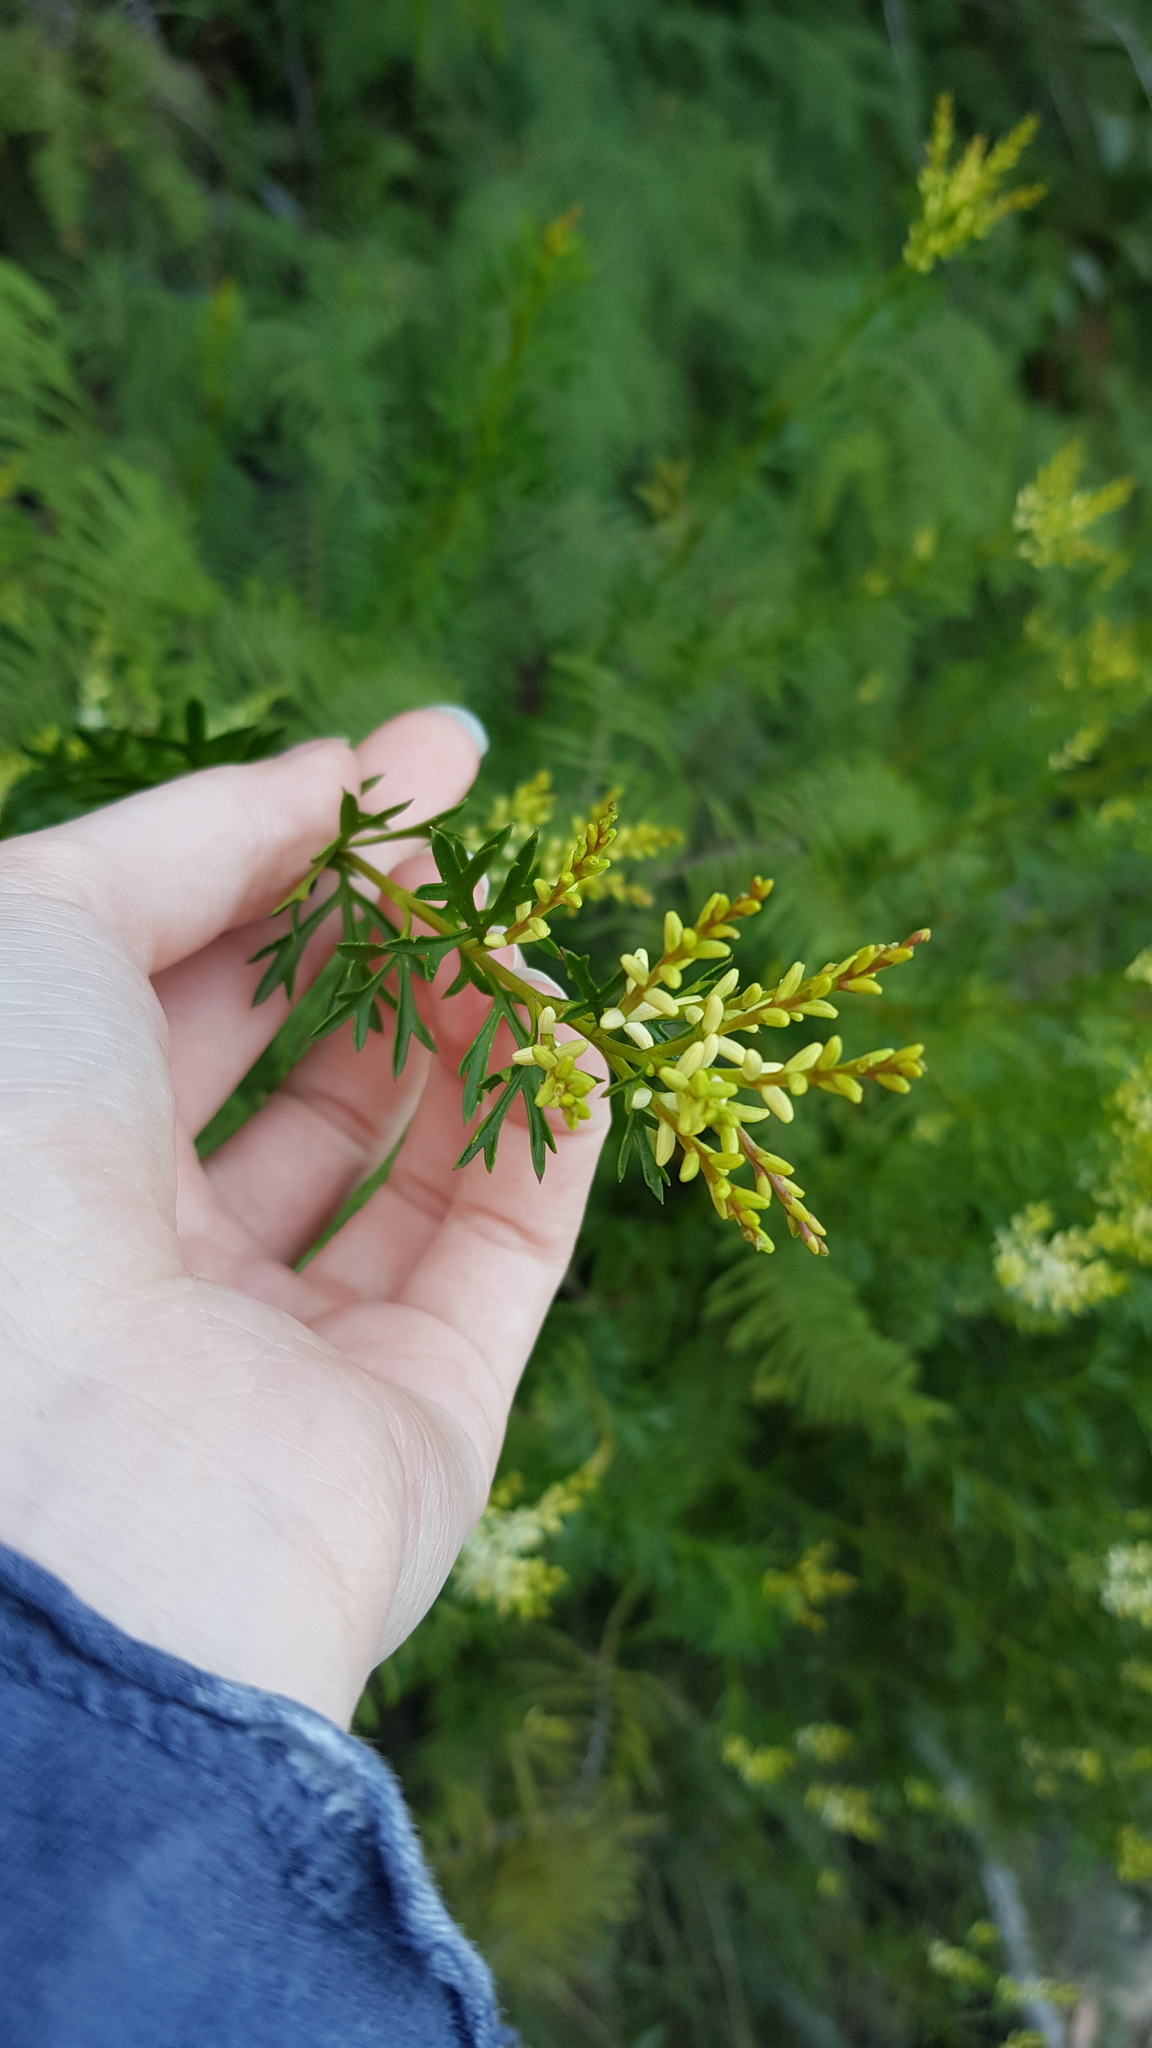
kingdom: Plantae
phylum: Tracheophyta
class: Magnoliopsida
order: Proteales
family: Proteaceae
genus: Symphionema
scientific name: Symphionema montanum
